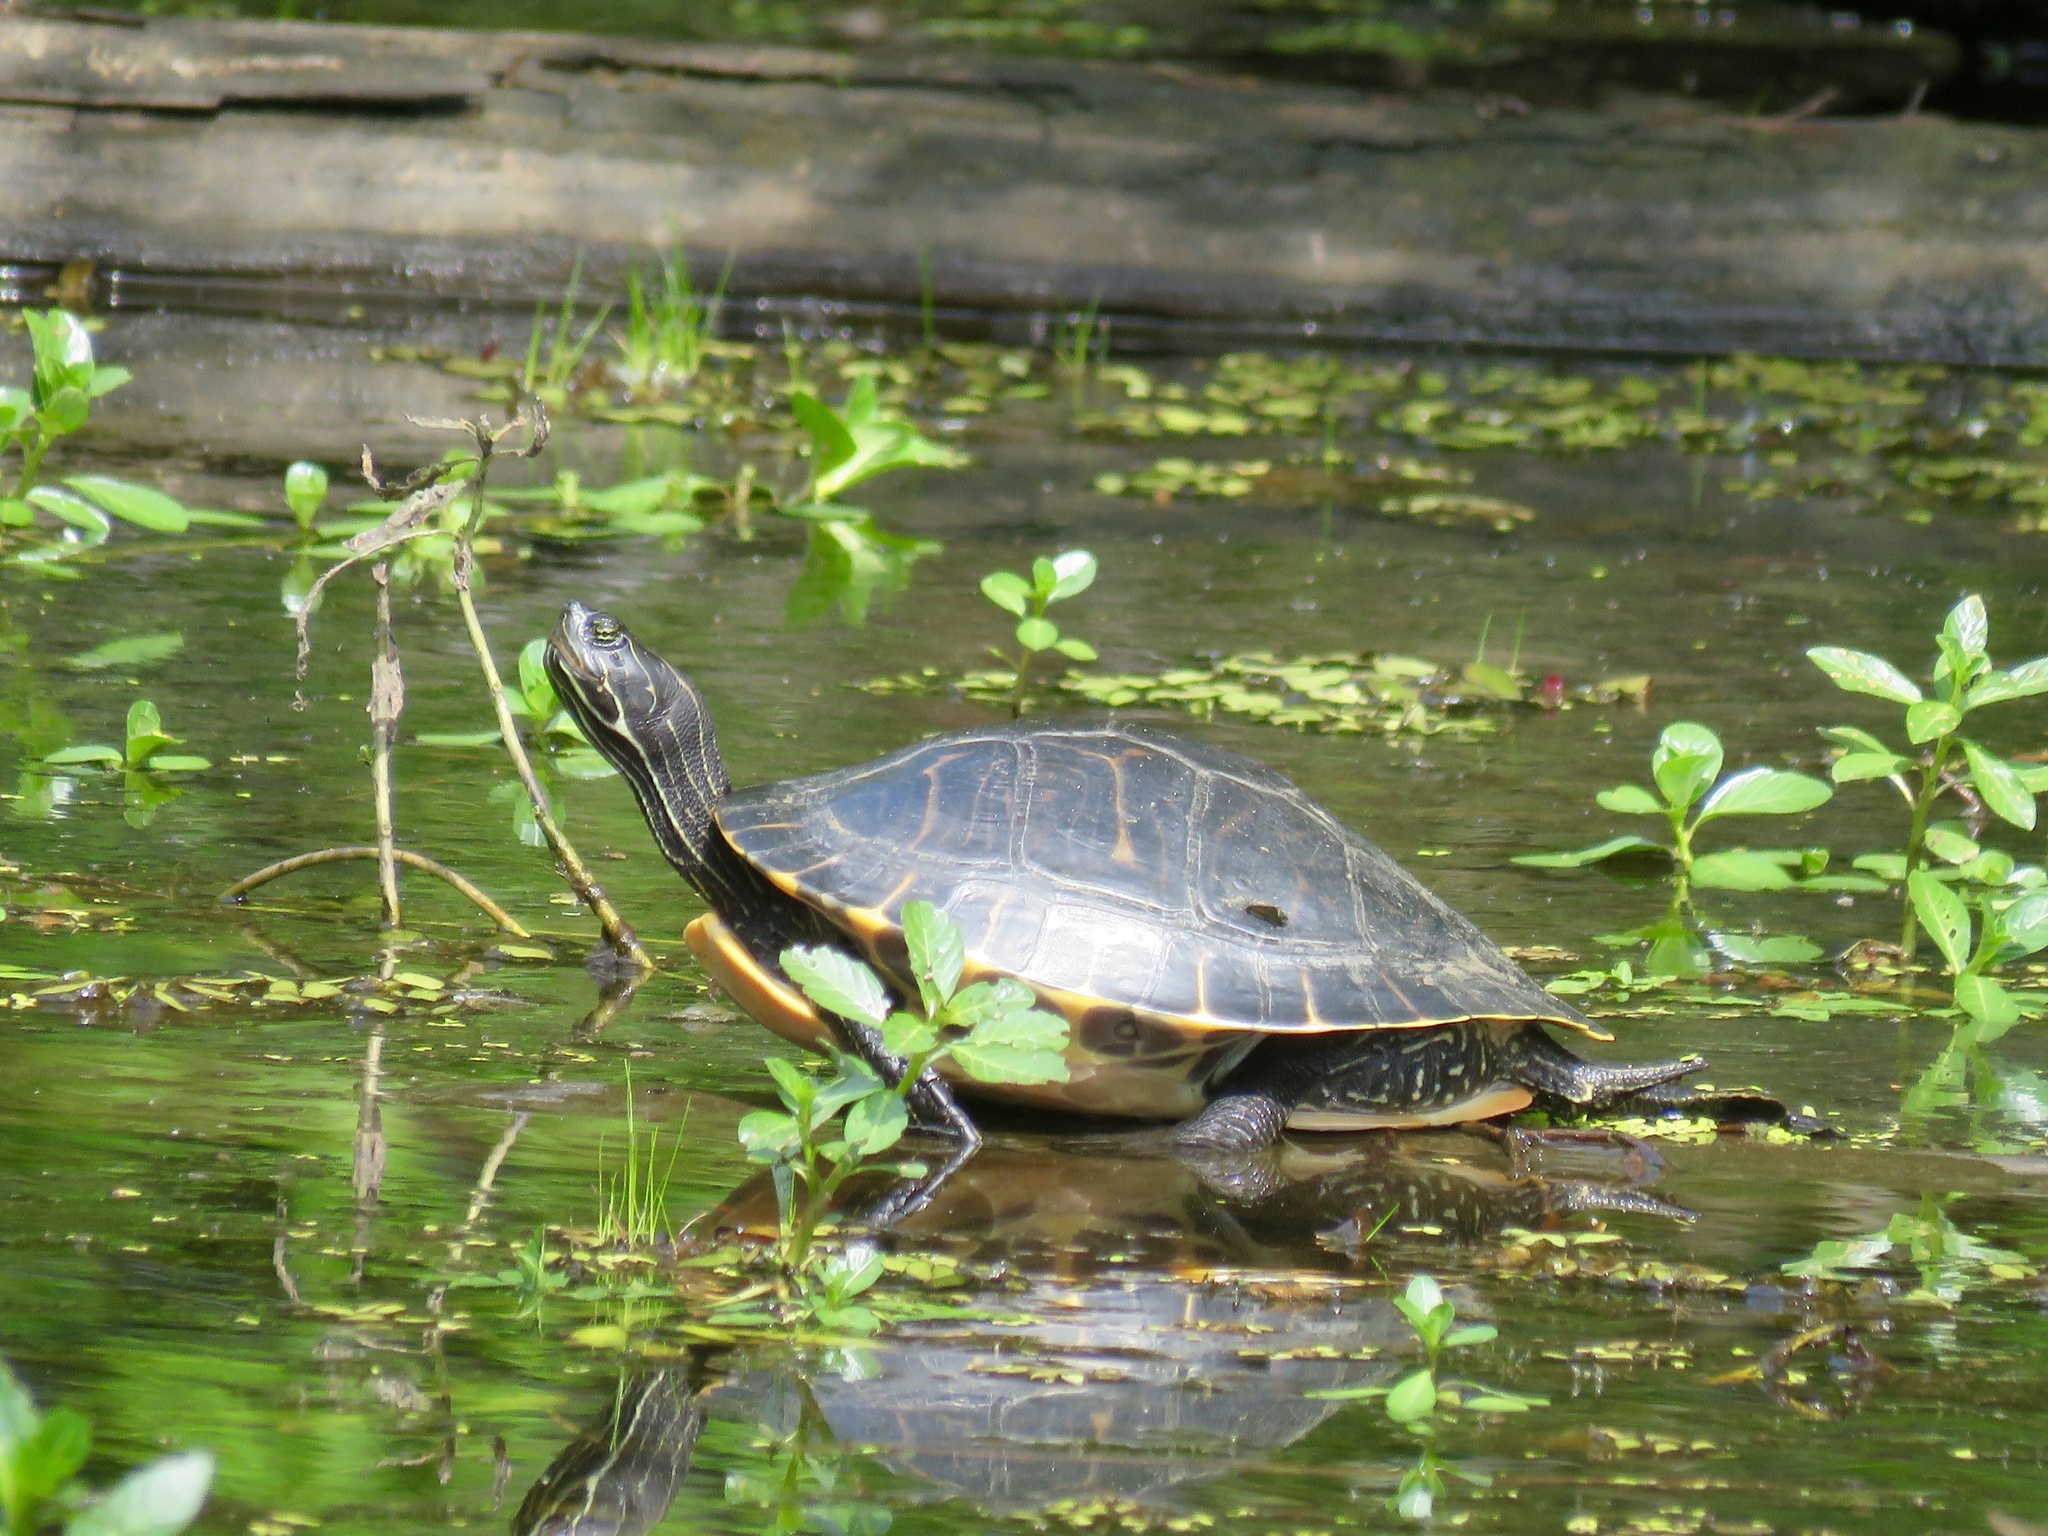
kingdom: Animalia
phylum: Chordata
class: Testudines
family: Emydidae
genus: Pseudemys
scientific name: Pseudemys concinna
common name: Eastern river cooter
